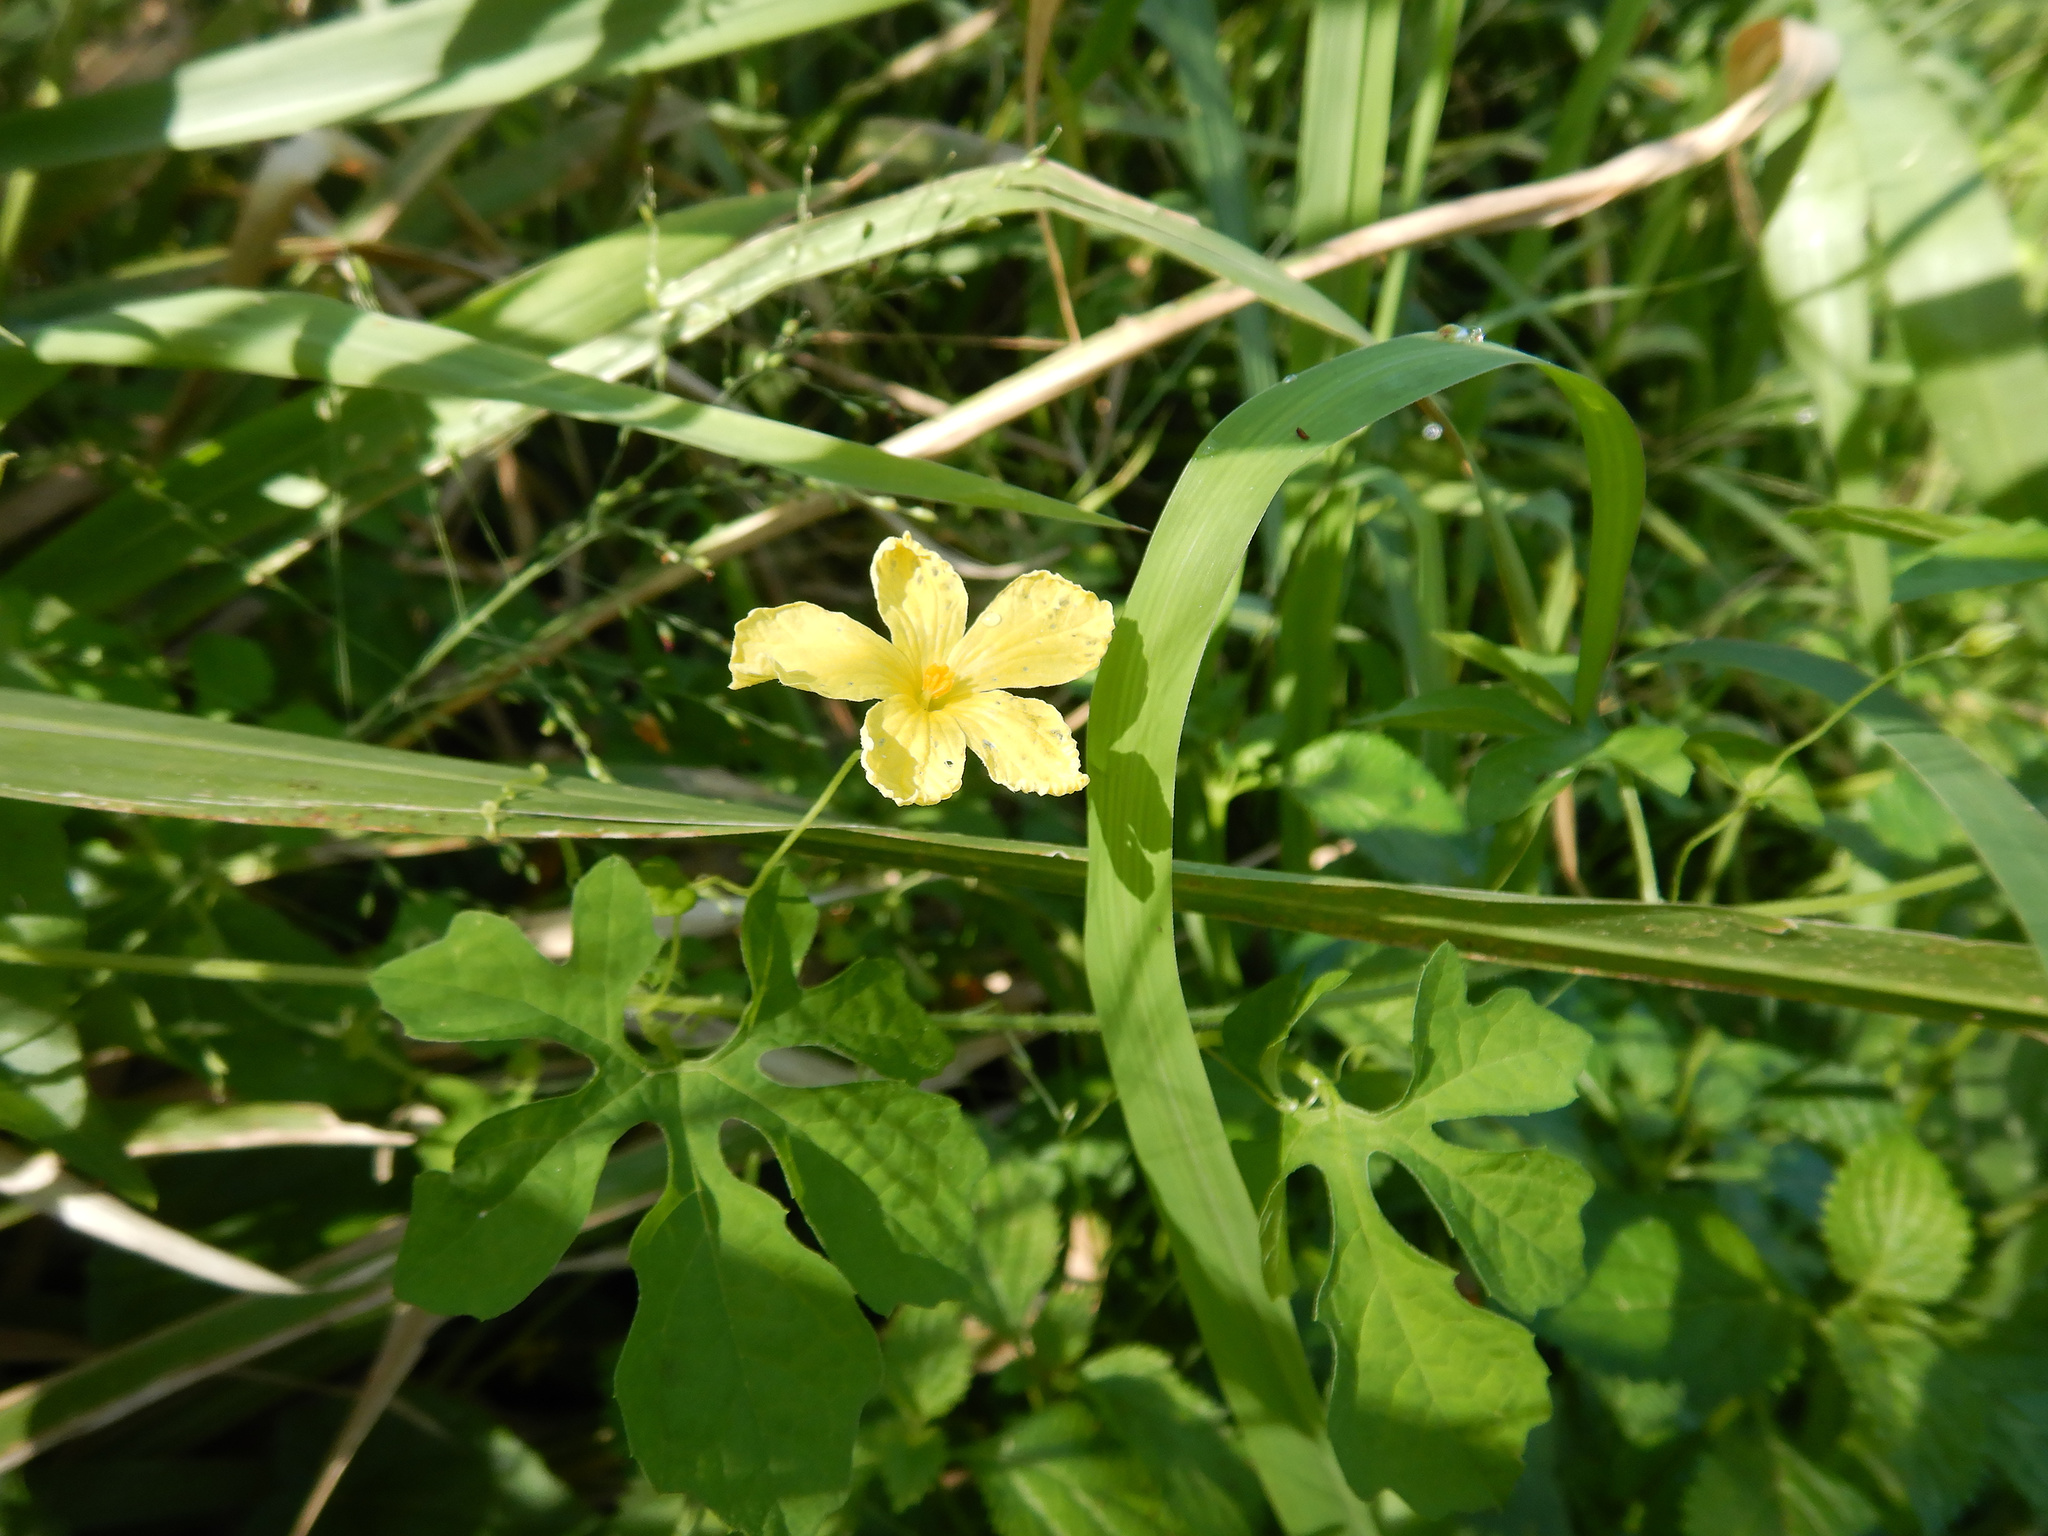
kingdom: Plantae
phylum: Tracheophyta
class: Magnoliopsida
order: Cucurbitales
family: Cucurbitaceae
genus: Momordica
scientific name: Momordica charantia
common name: Balsampear
